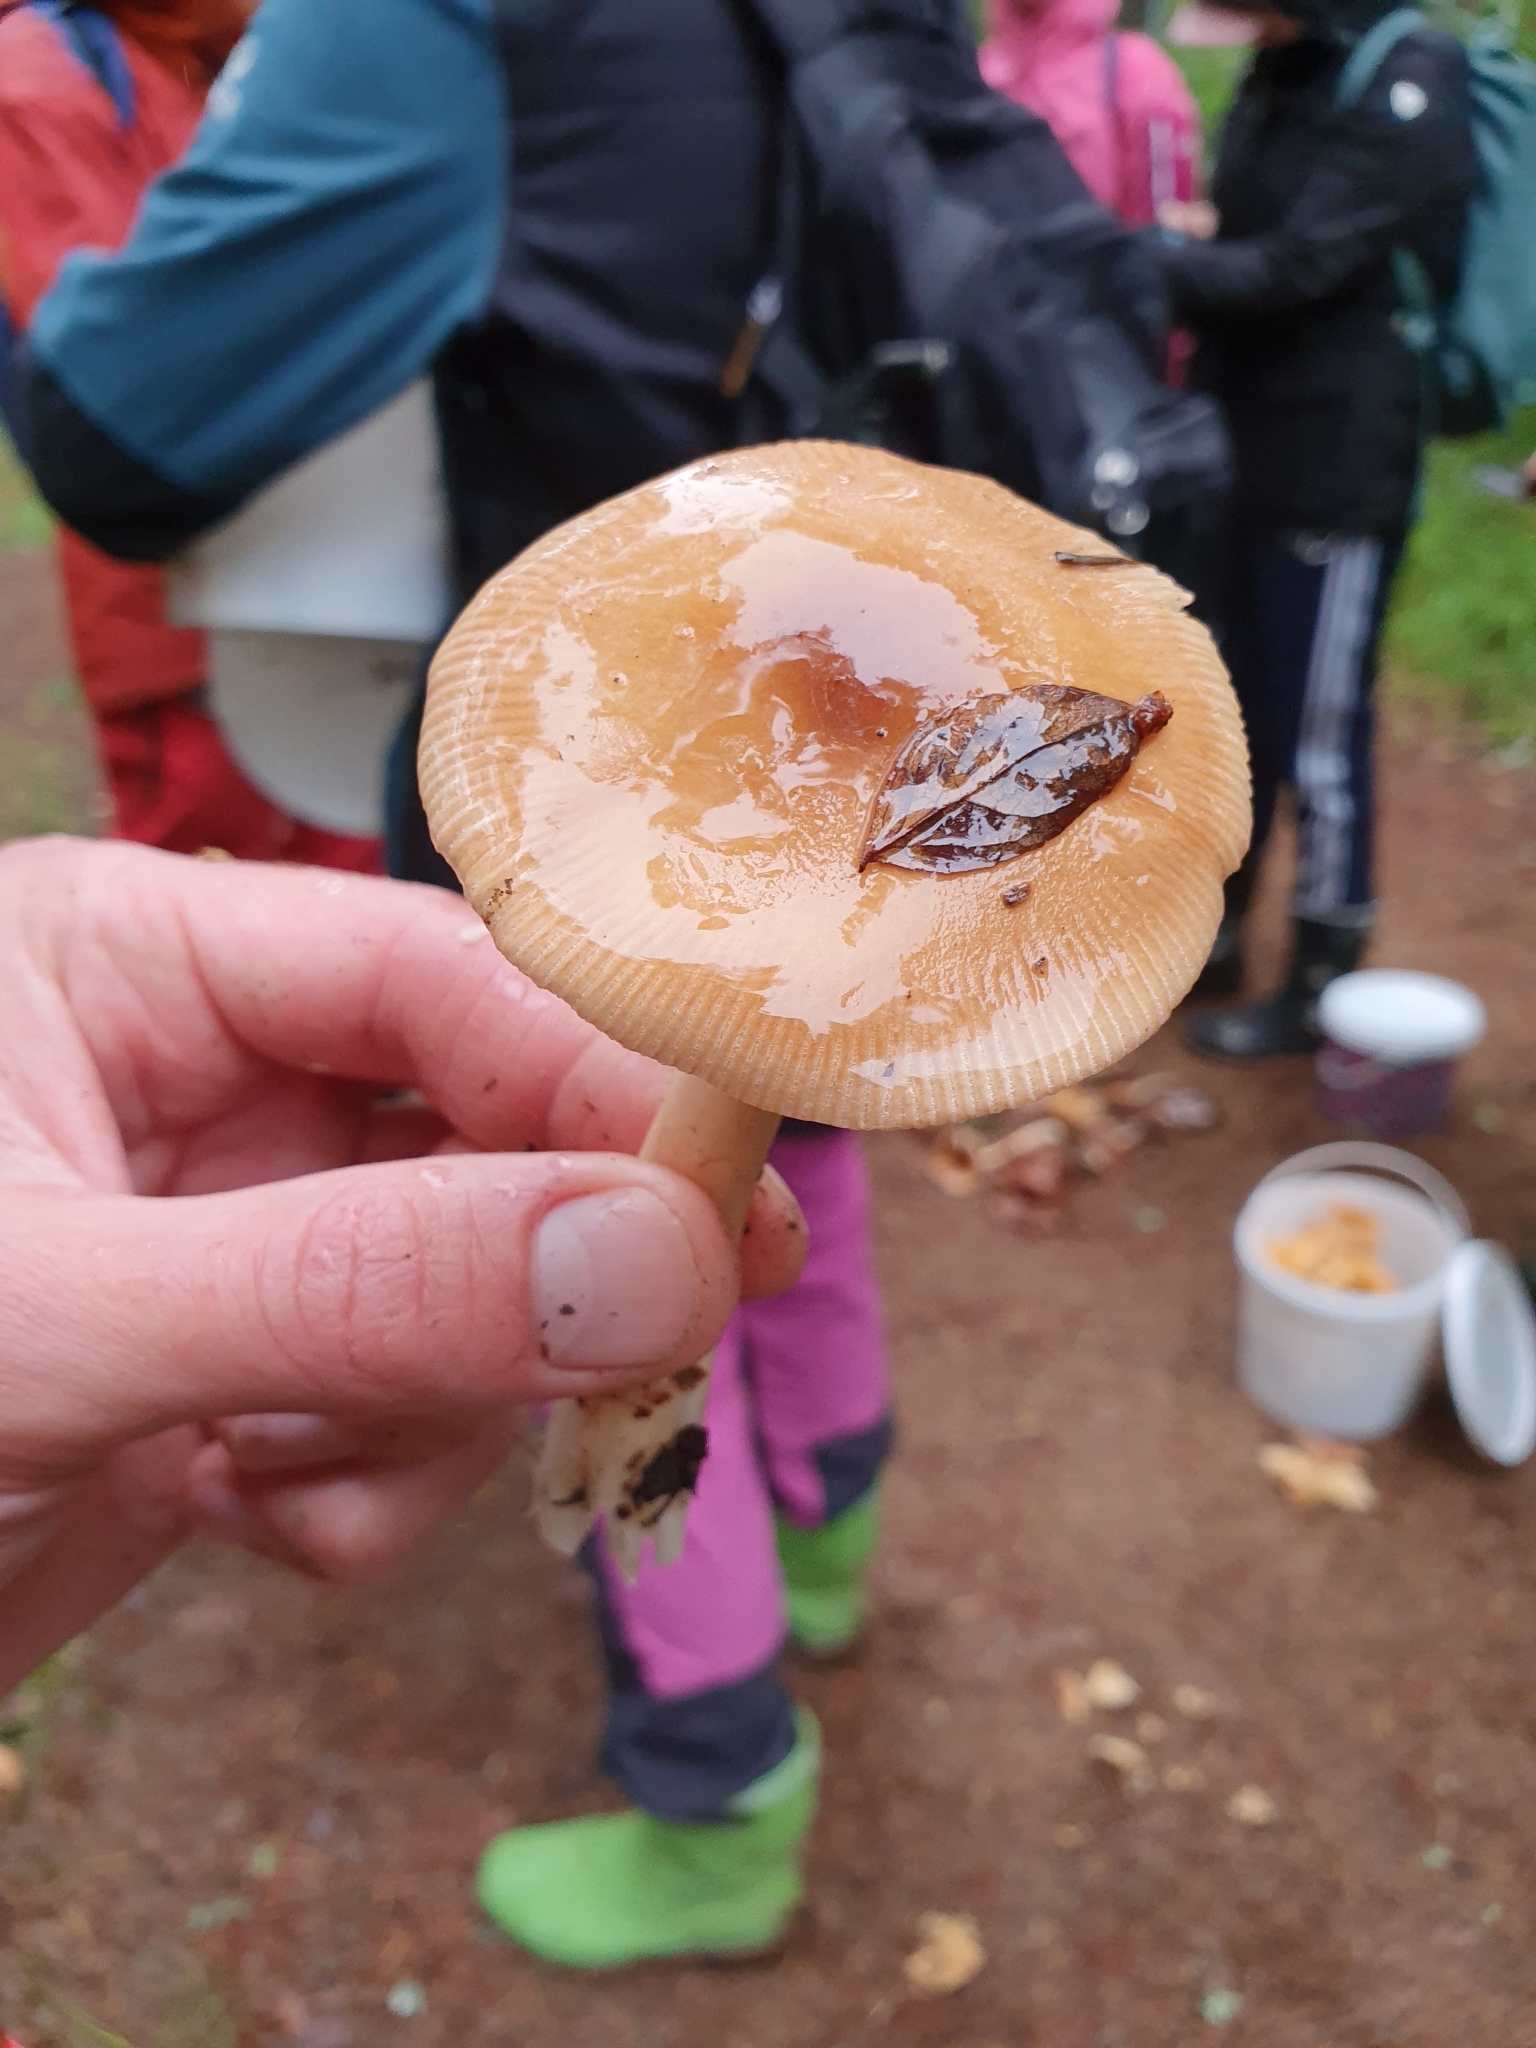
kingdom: Fungi
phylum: Basidiomycota
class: Agaricomycetes
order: Agaricales
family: Amanitaceae
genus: Amanita
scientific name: Amanita fulva
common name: Tawny grisette
